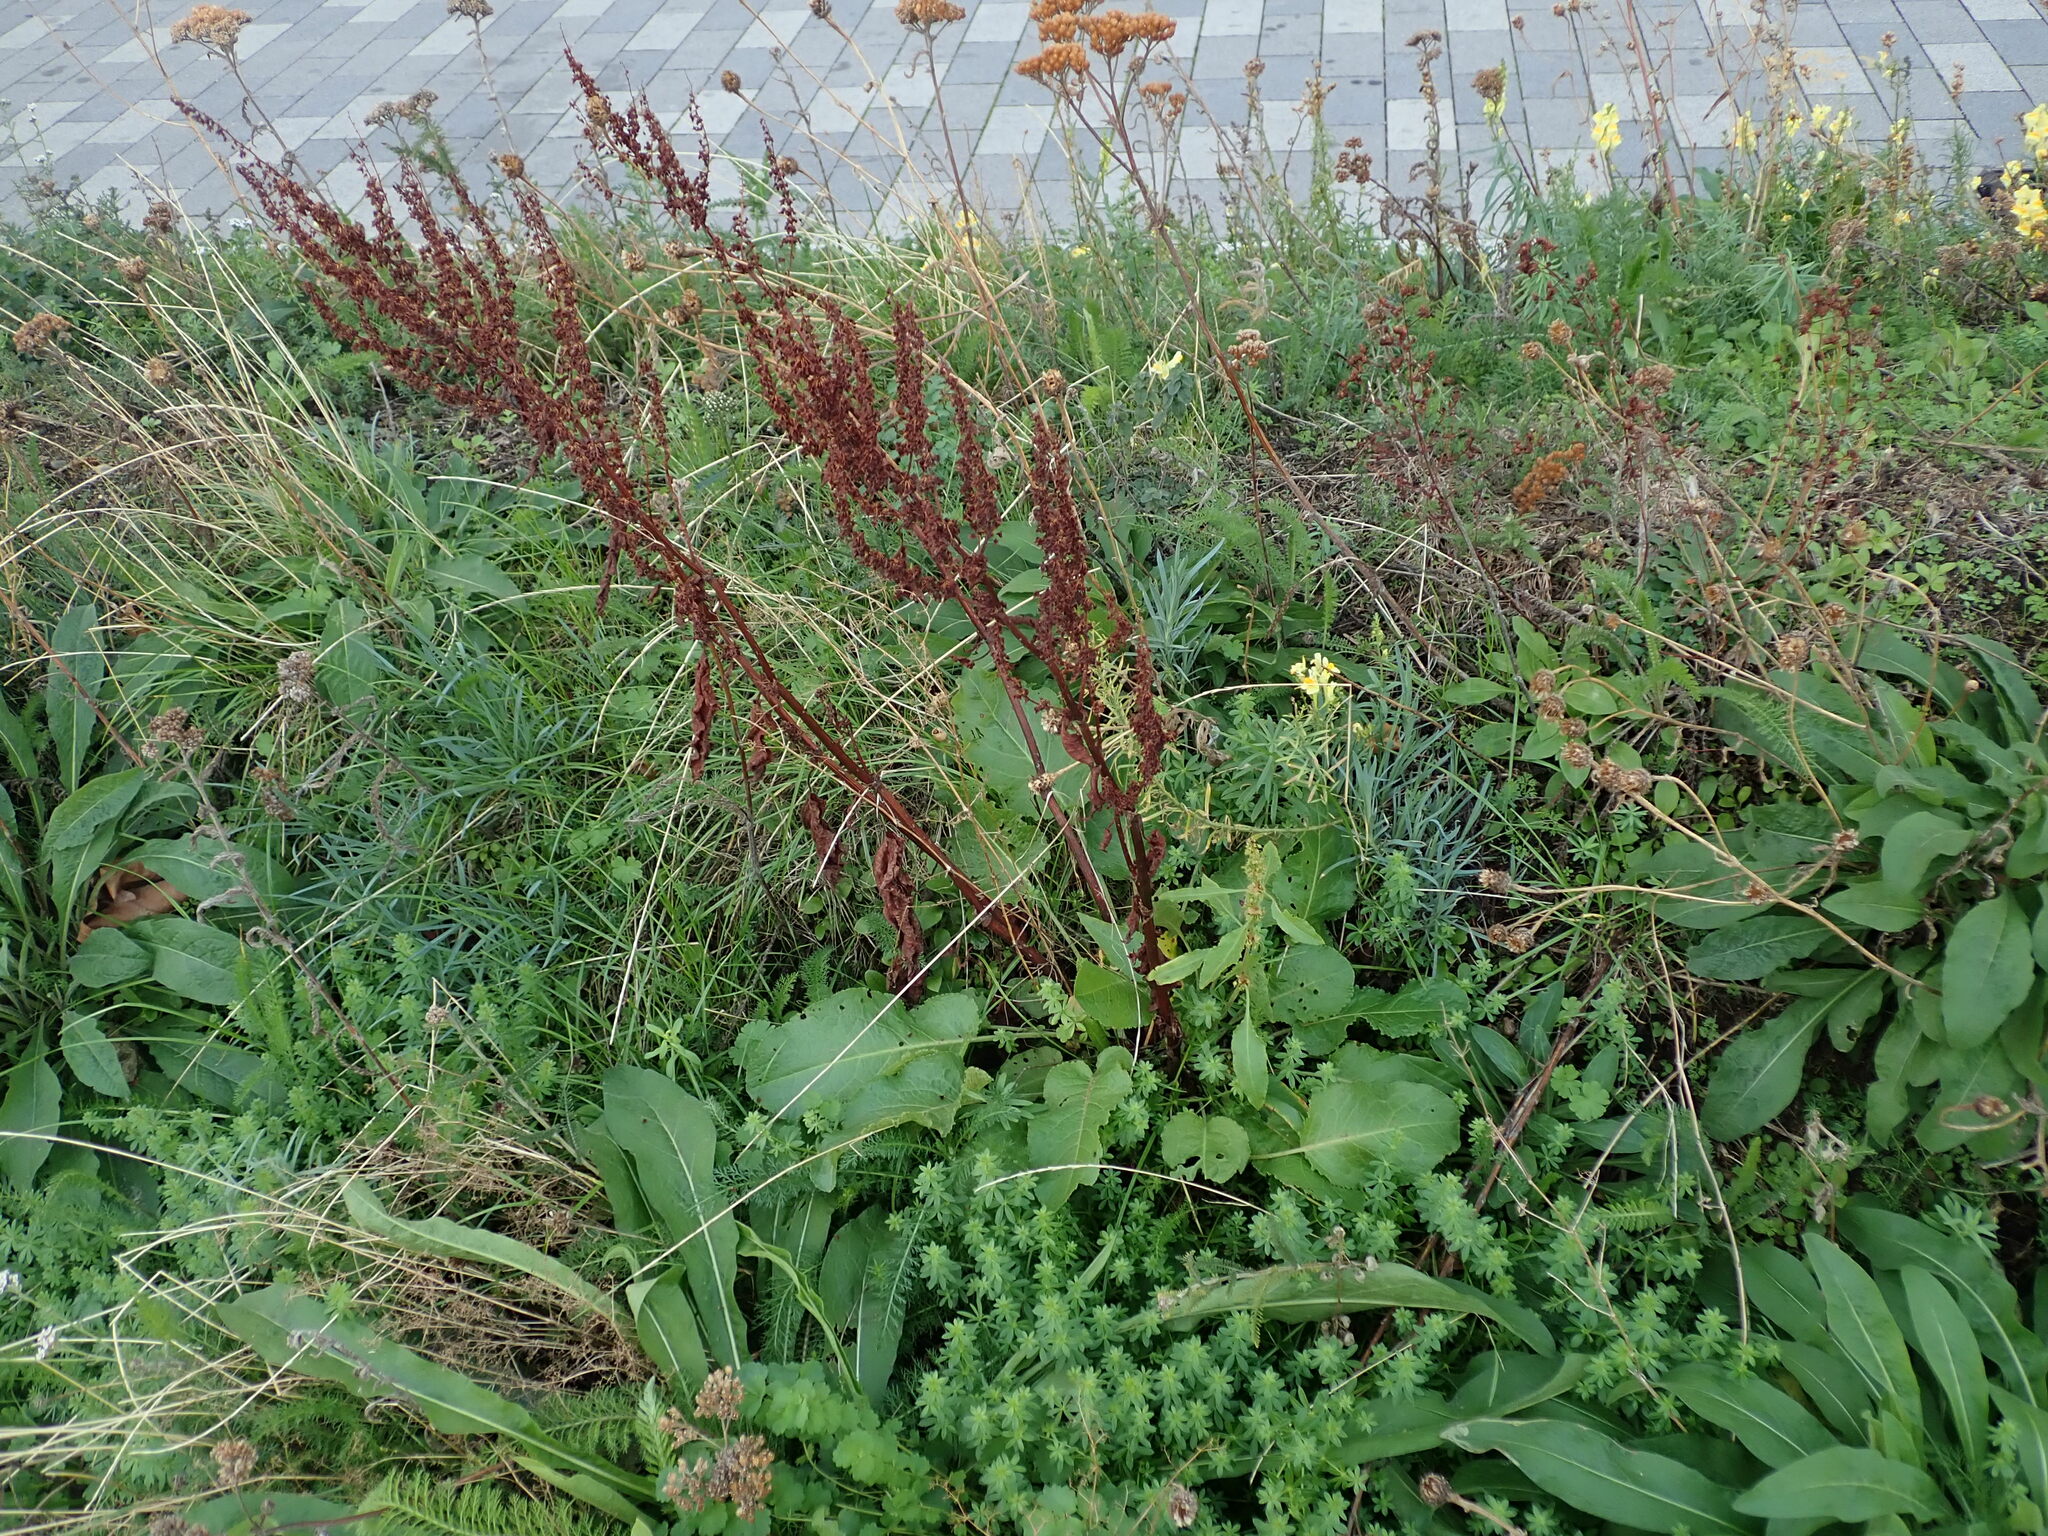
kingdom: Plantae
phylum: Tracheophyta
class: Magnoliopsida
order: Caryophyllales
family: Polygonaceae
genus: Rumex
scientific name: Rumex obtusifolius
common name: Bitter dock
